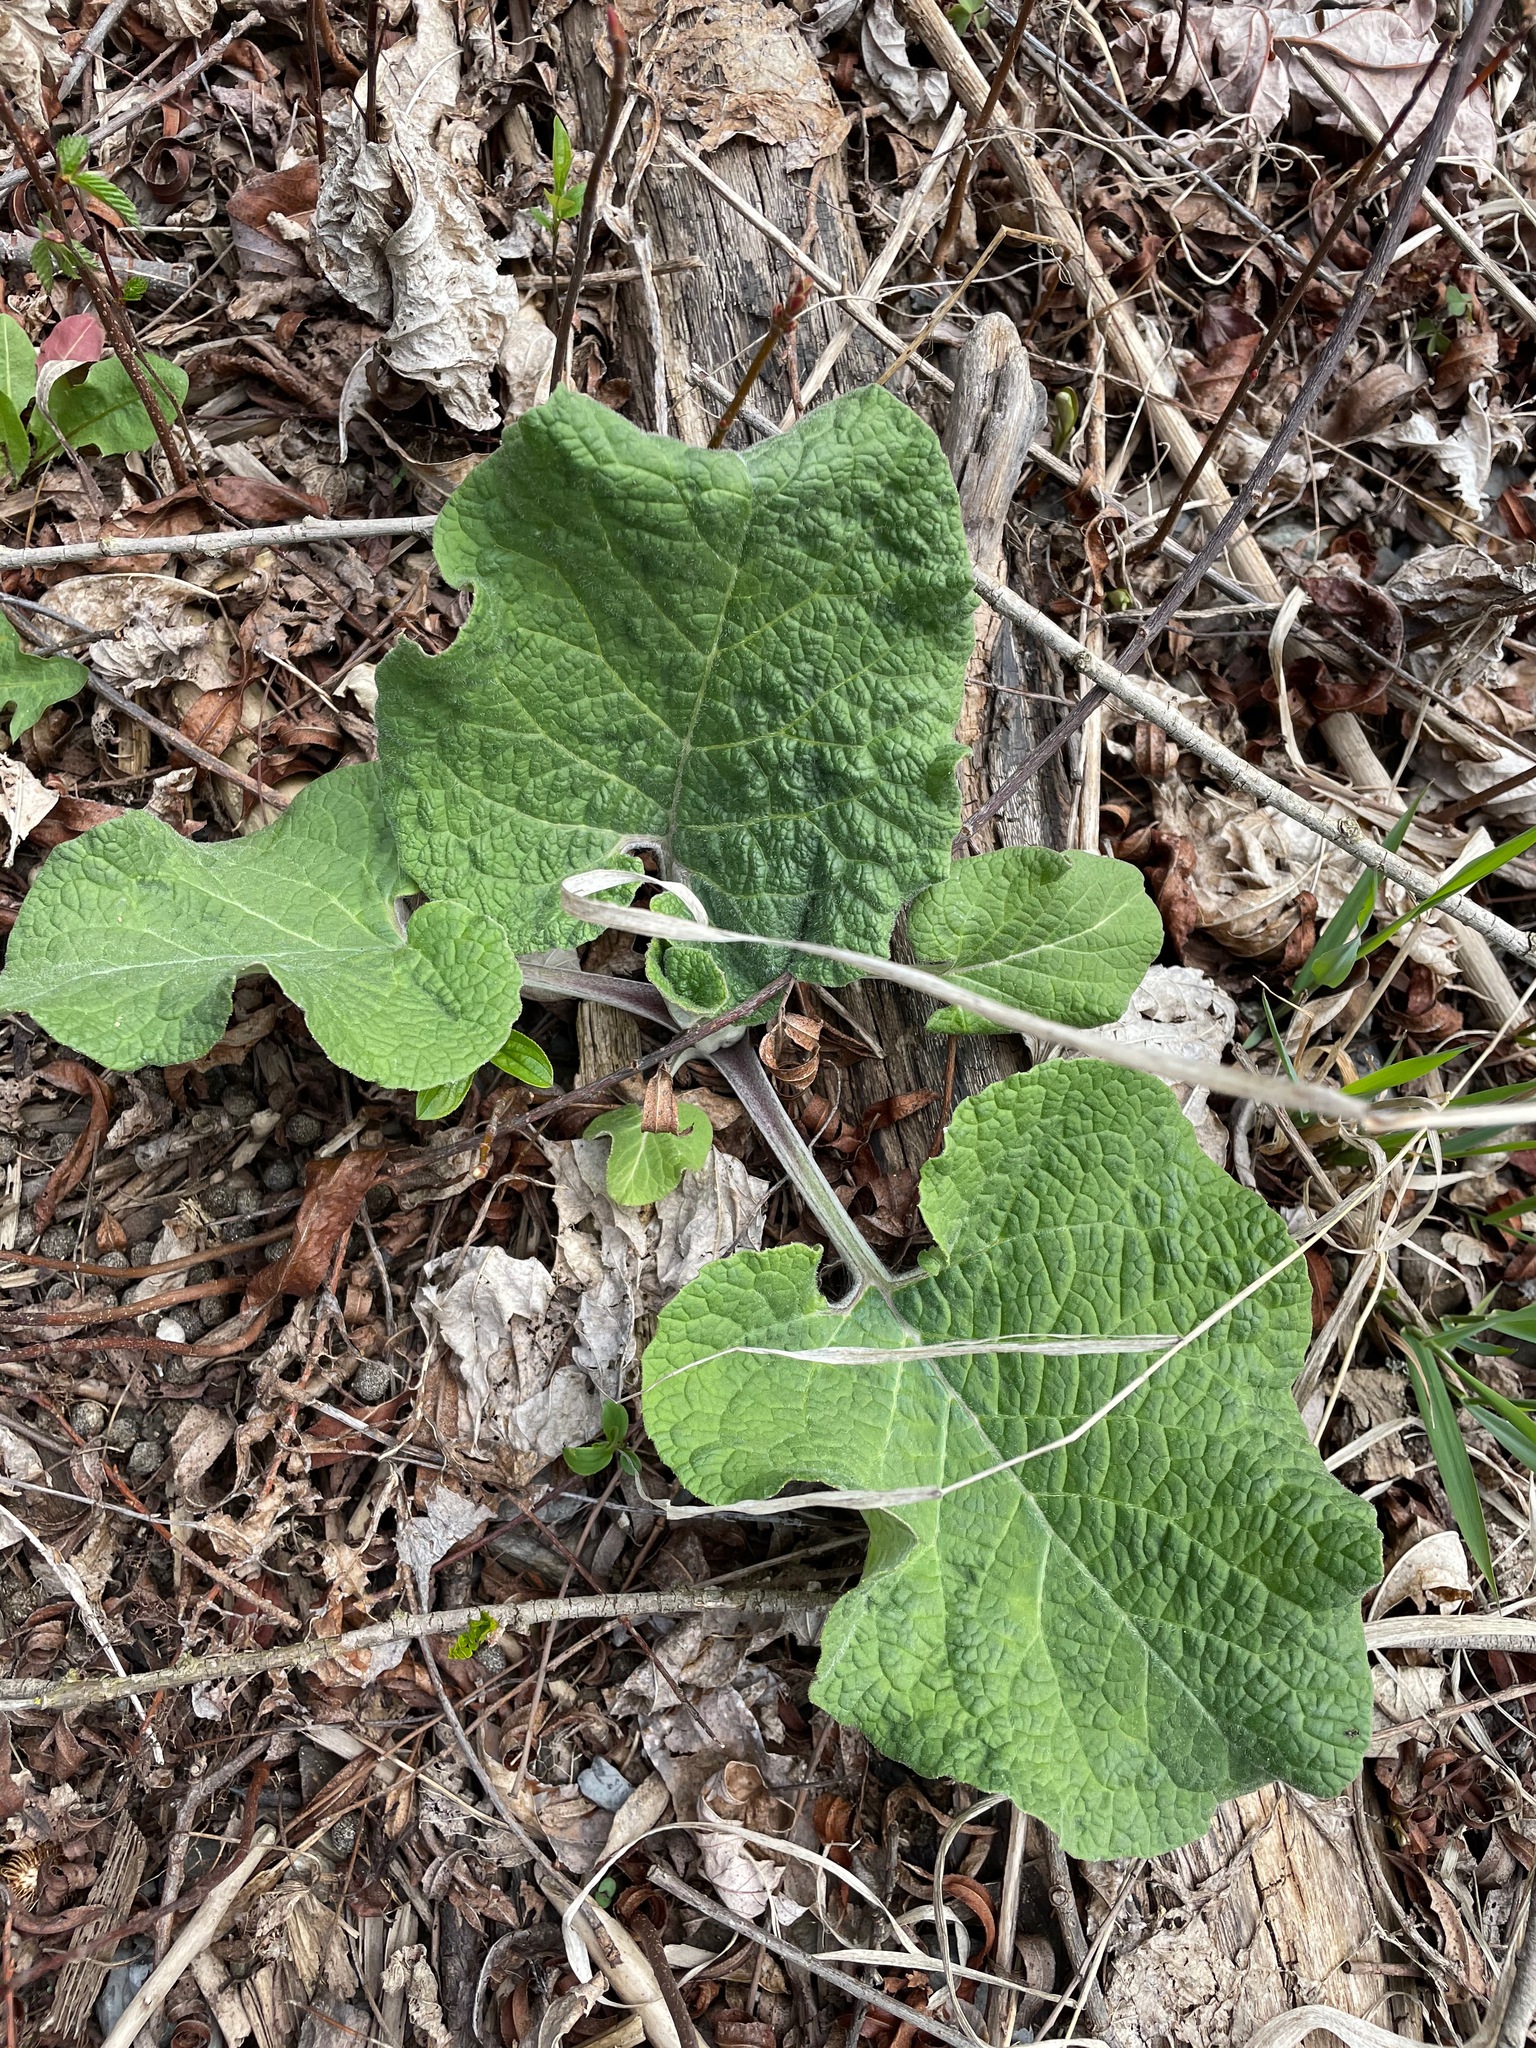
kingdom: Plantae
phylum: Tracheophyta
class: Magnoliopsida
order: Asterales
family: Asteraceae
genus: Arctium
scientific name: Arctium
